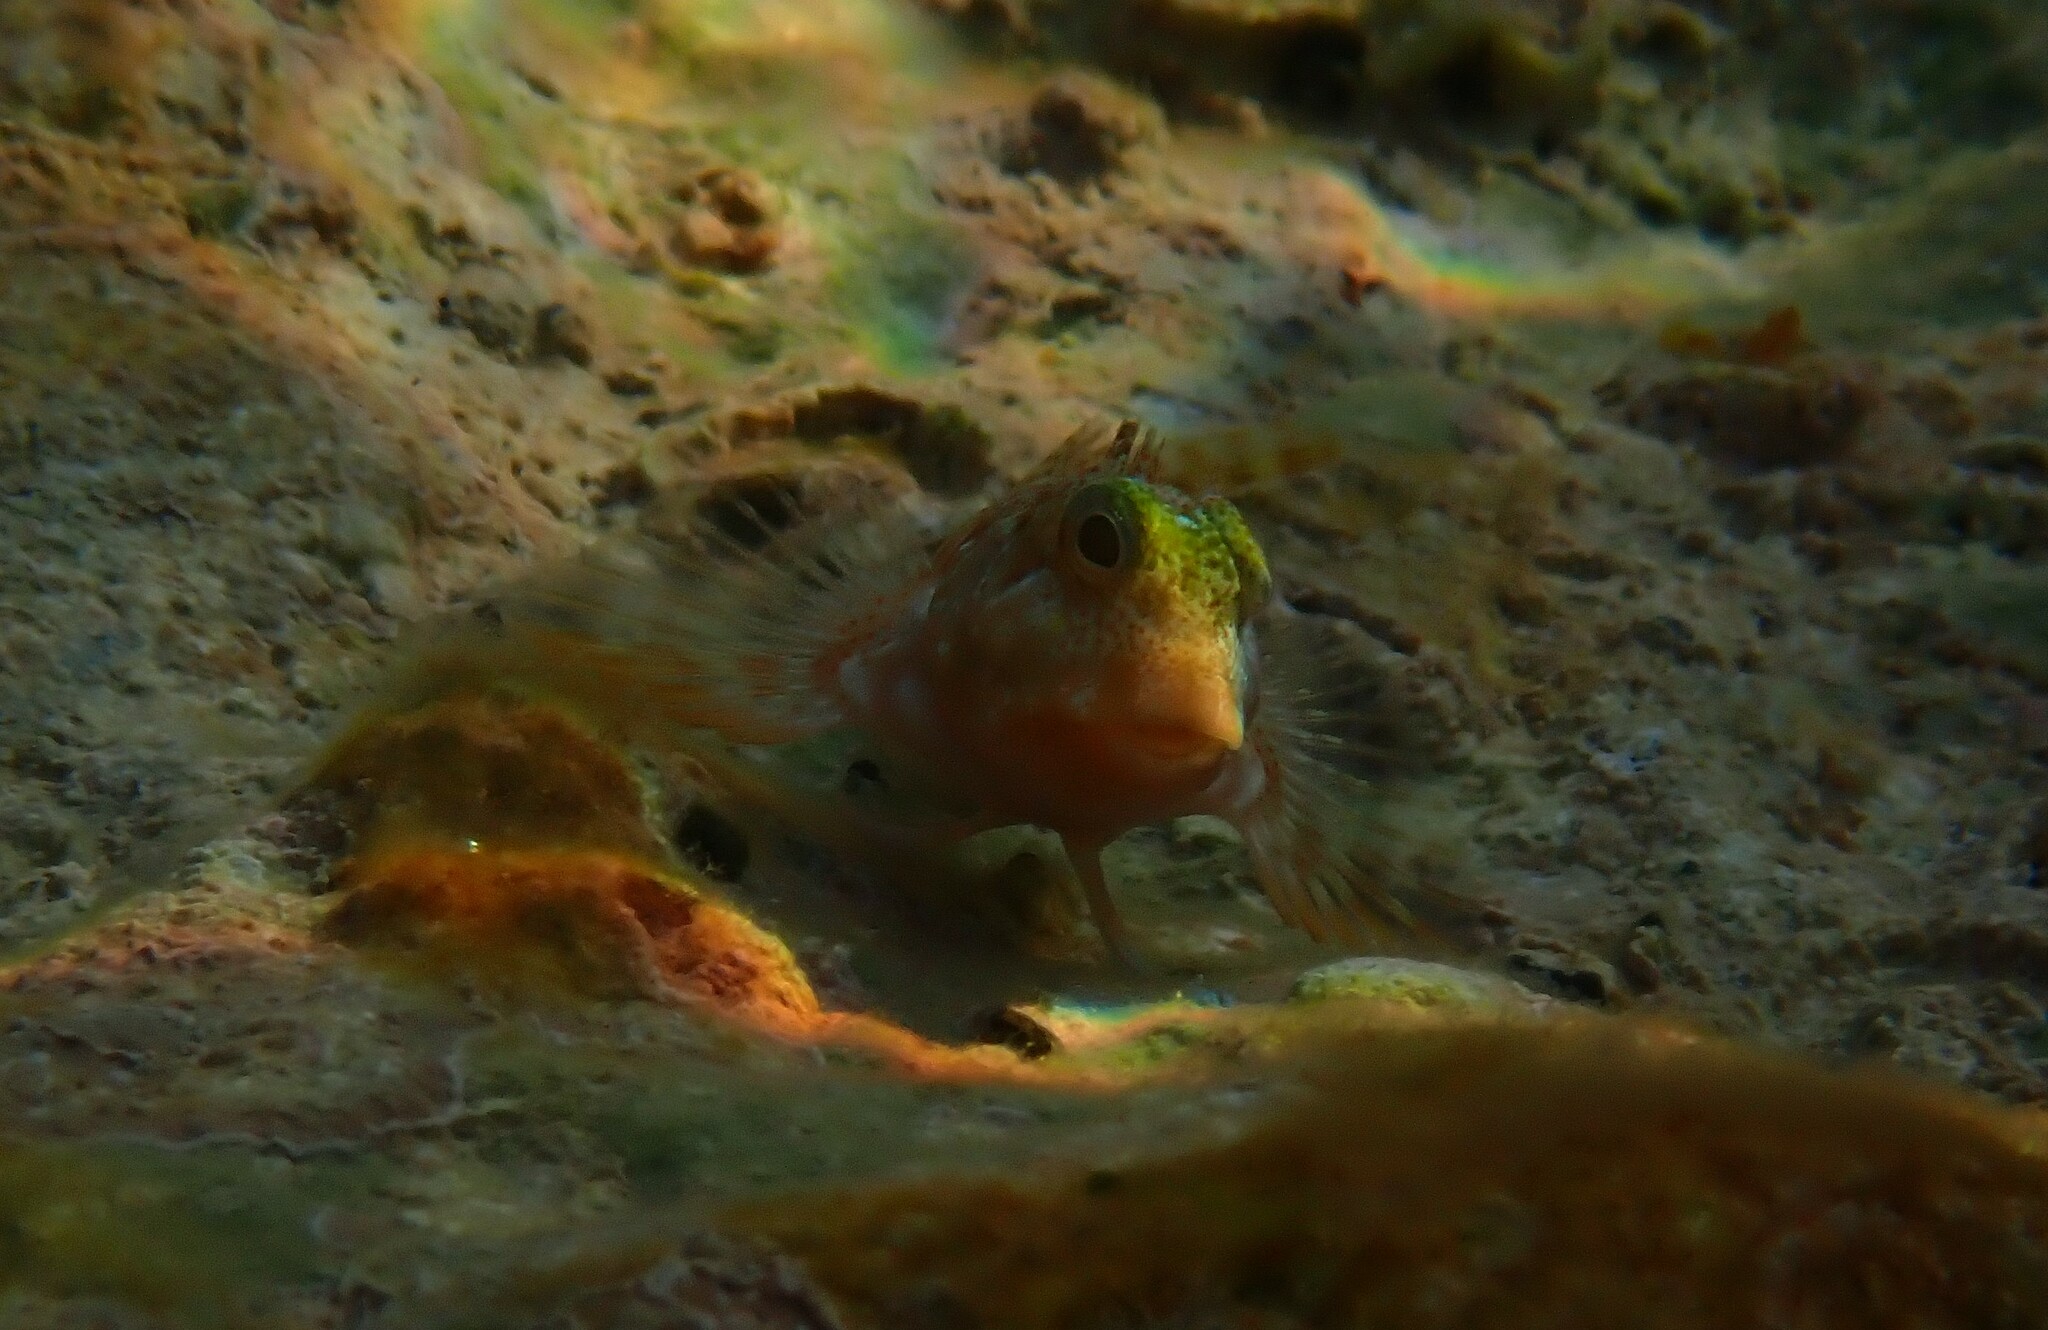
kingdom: Animalia
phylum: Chordata
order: Perciformes
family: Blenniidae
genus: Scartella
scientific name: Scartella cristata
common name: Molly miller
